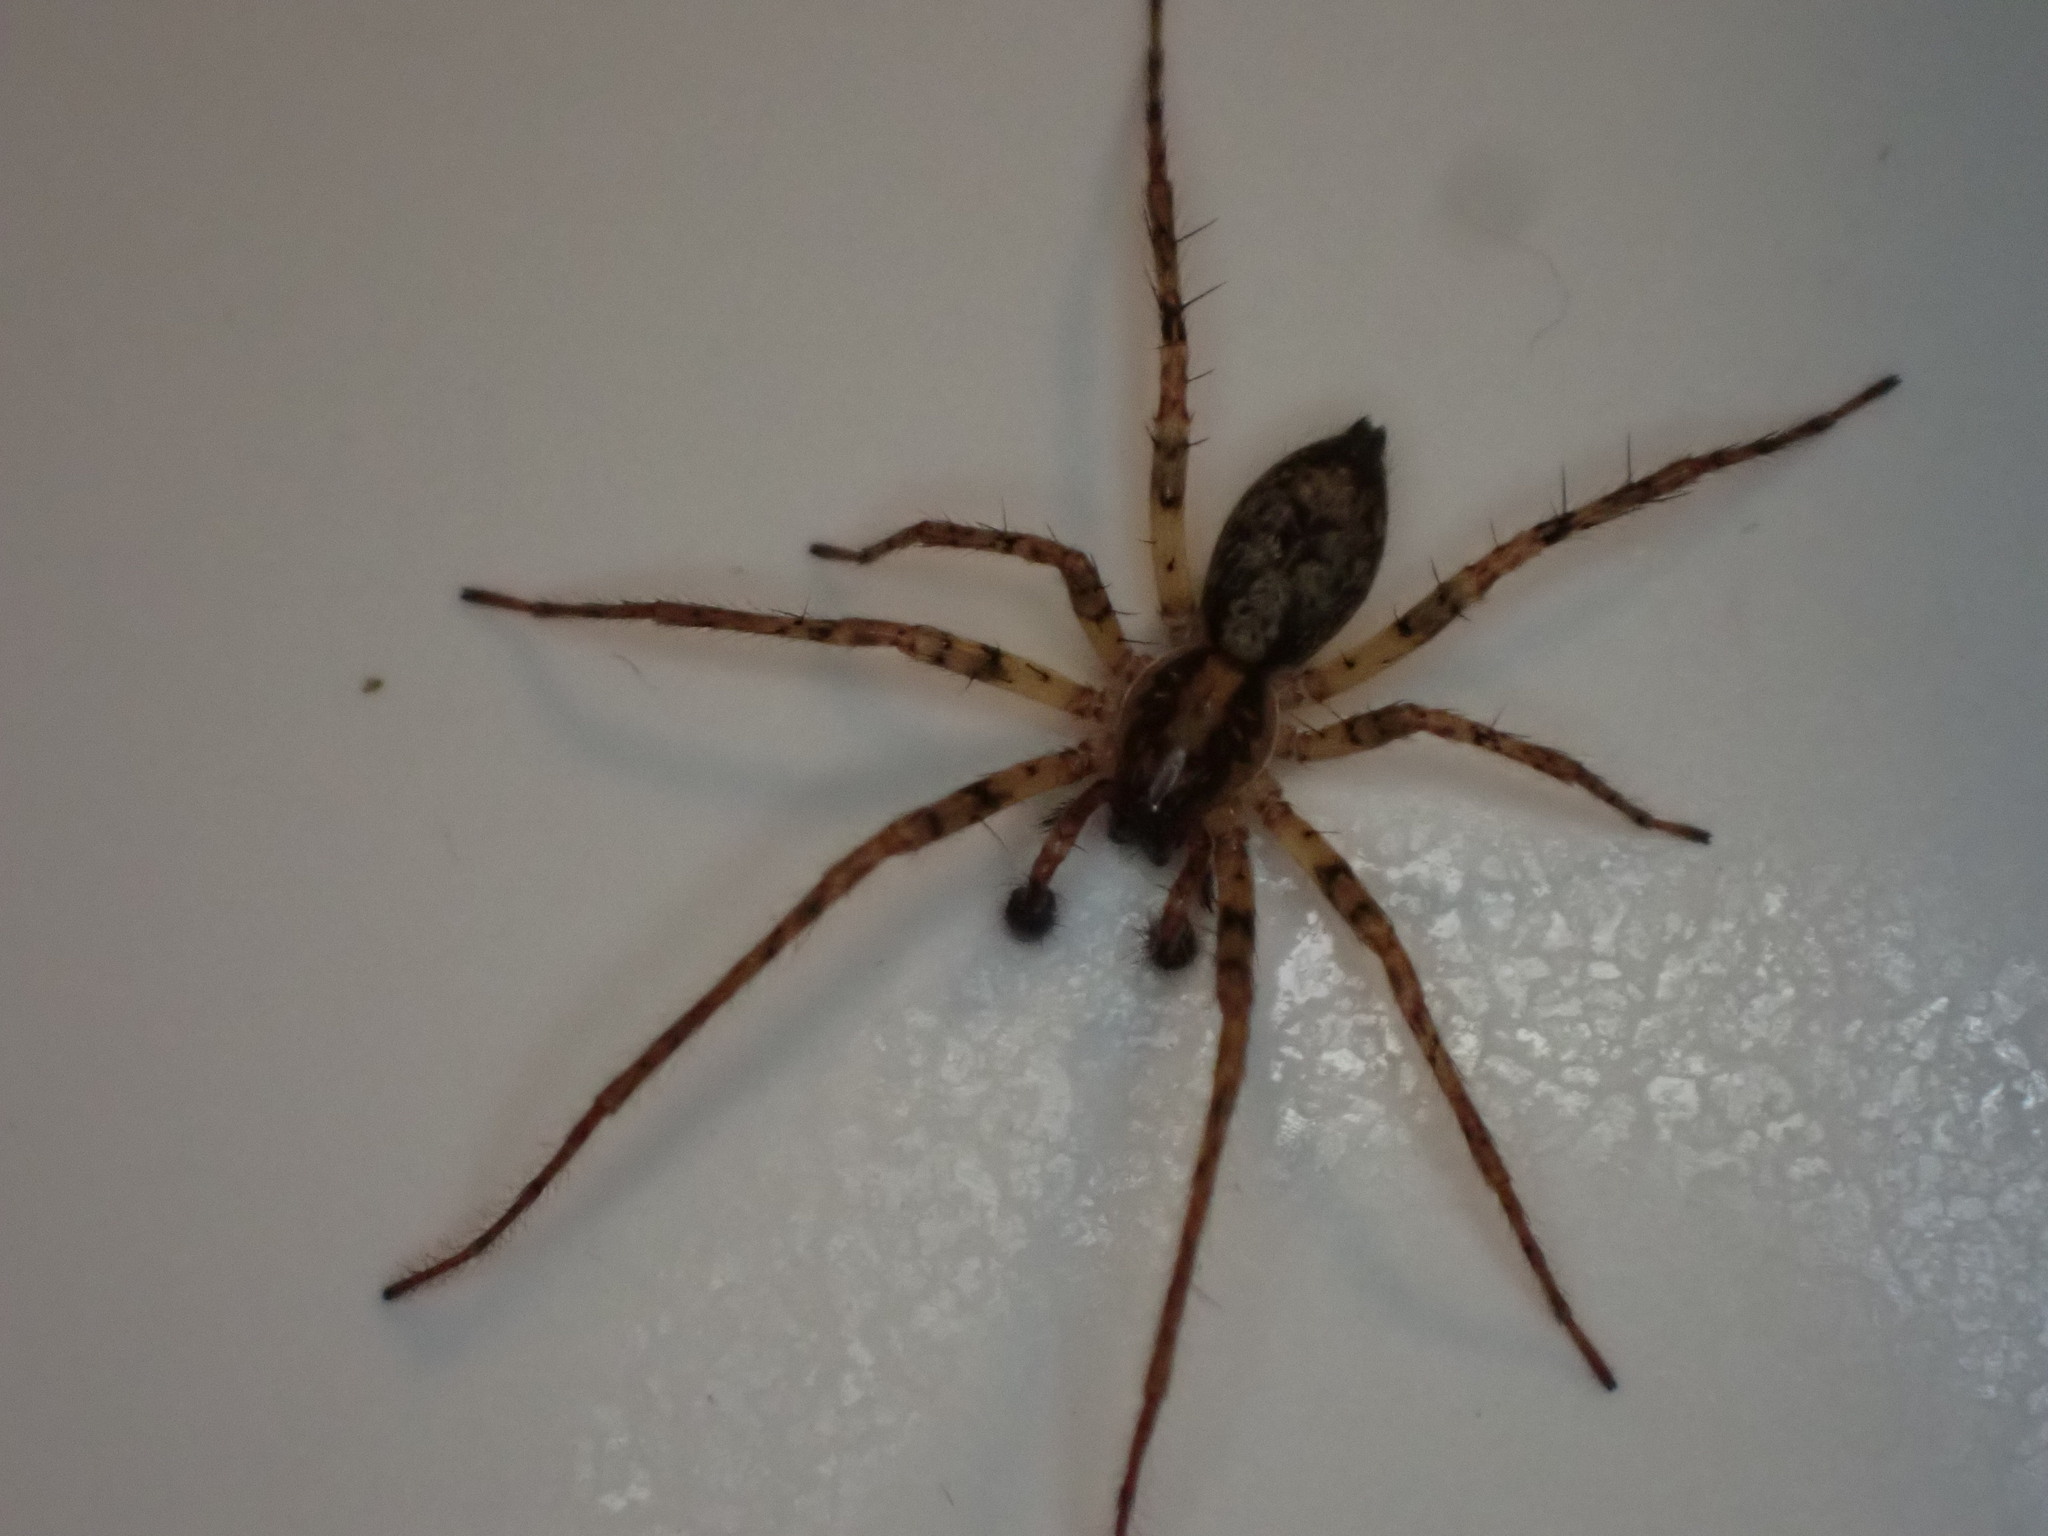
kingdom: Animalia
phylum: Arthropoda
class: Arachnida
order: Araneae
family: Anyphaenidae
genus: Anyphaena
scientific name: Anyphaena accentuata
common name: Buzzing spider
